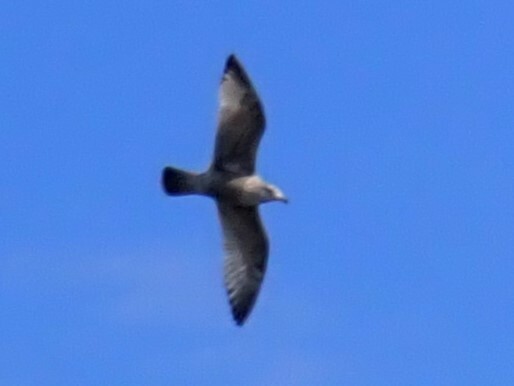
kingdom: Animalia
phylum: Chordata
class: Aves
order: Charadriiformes
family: Laridae
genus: Larus
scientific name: Larus argentatus
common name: Herring gull
